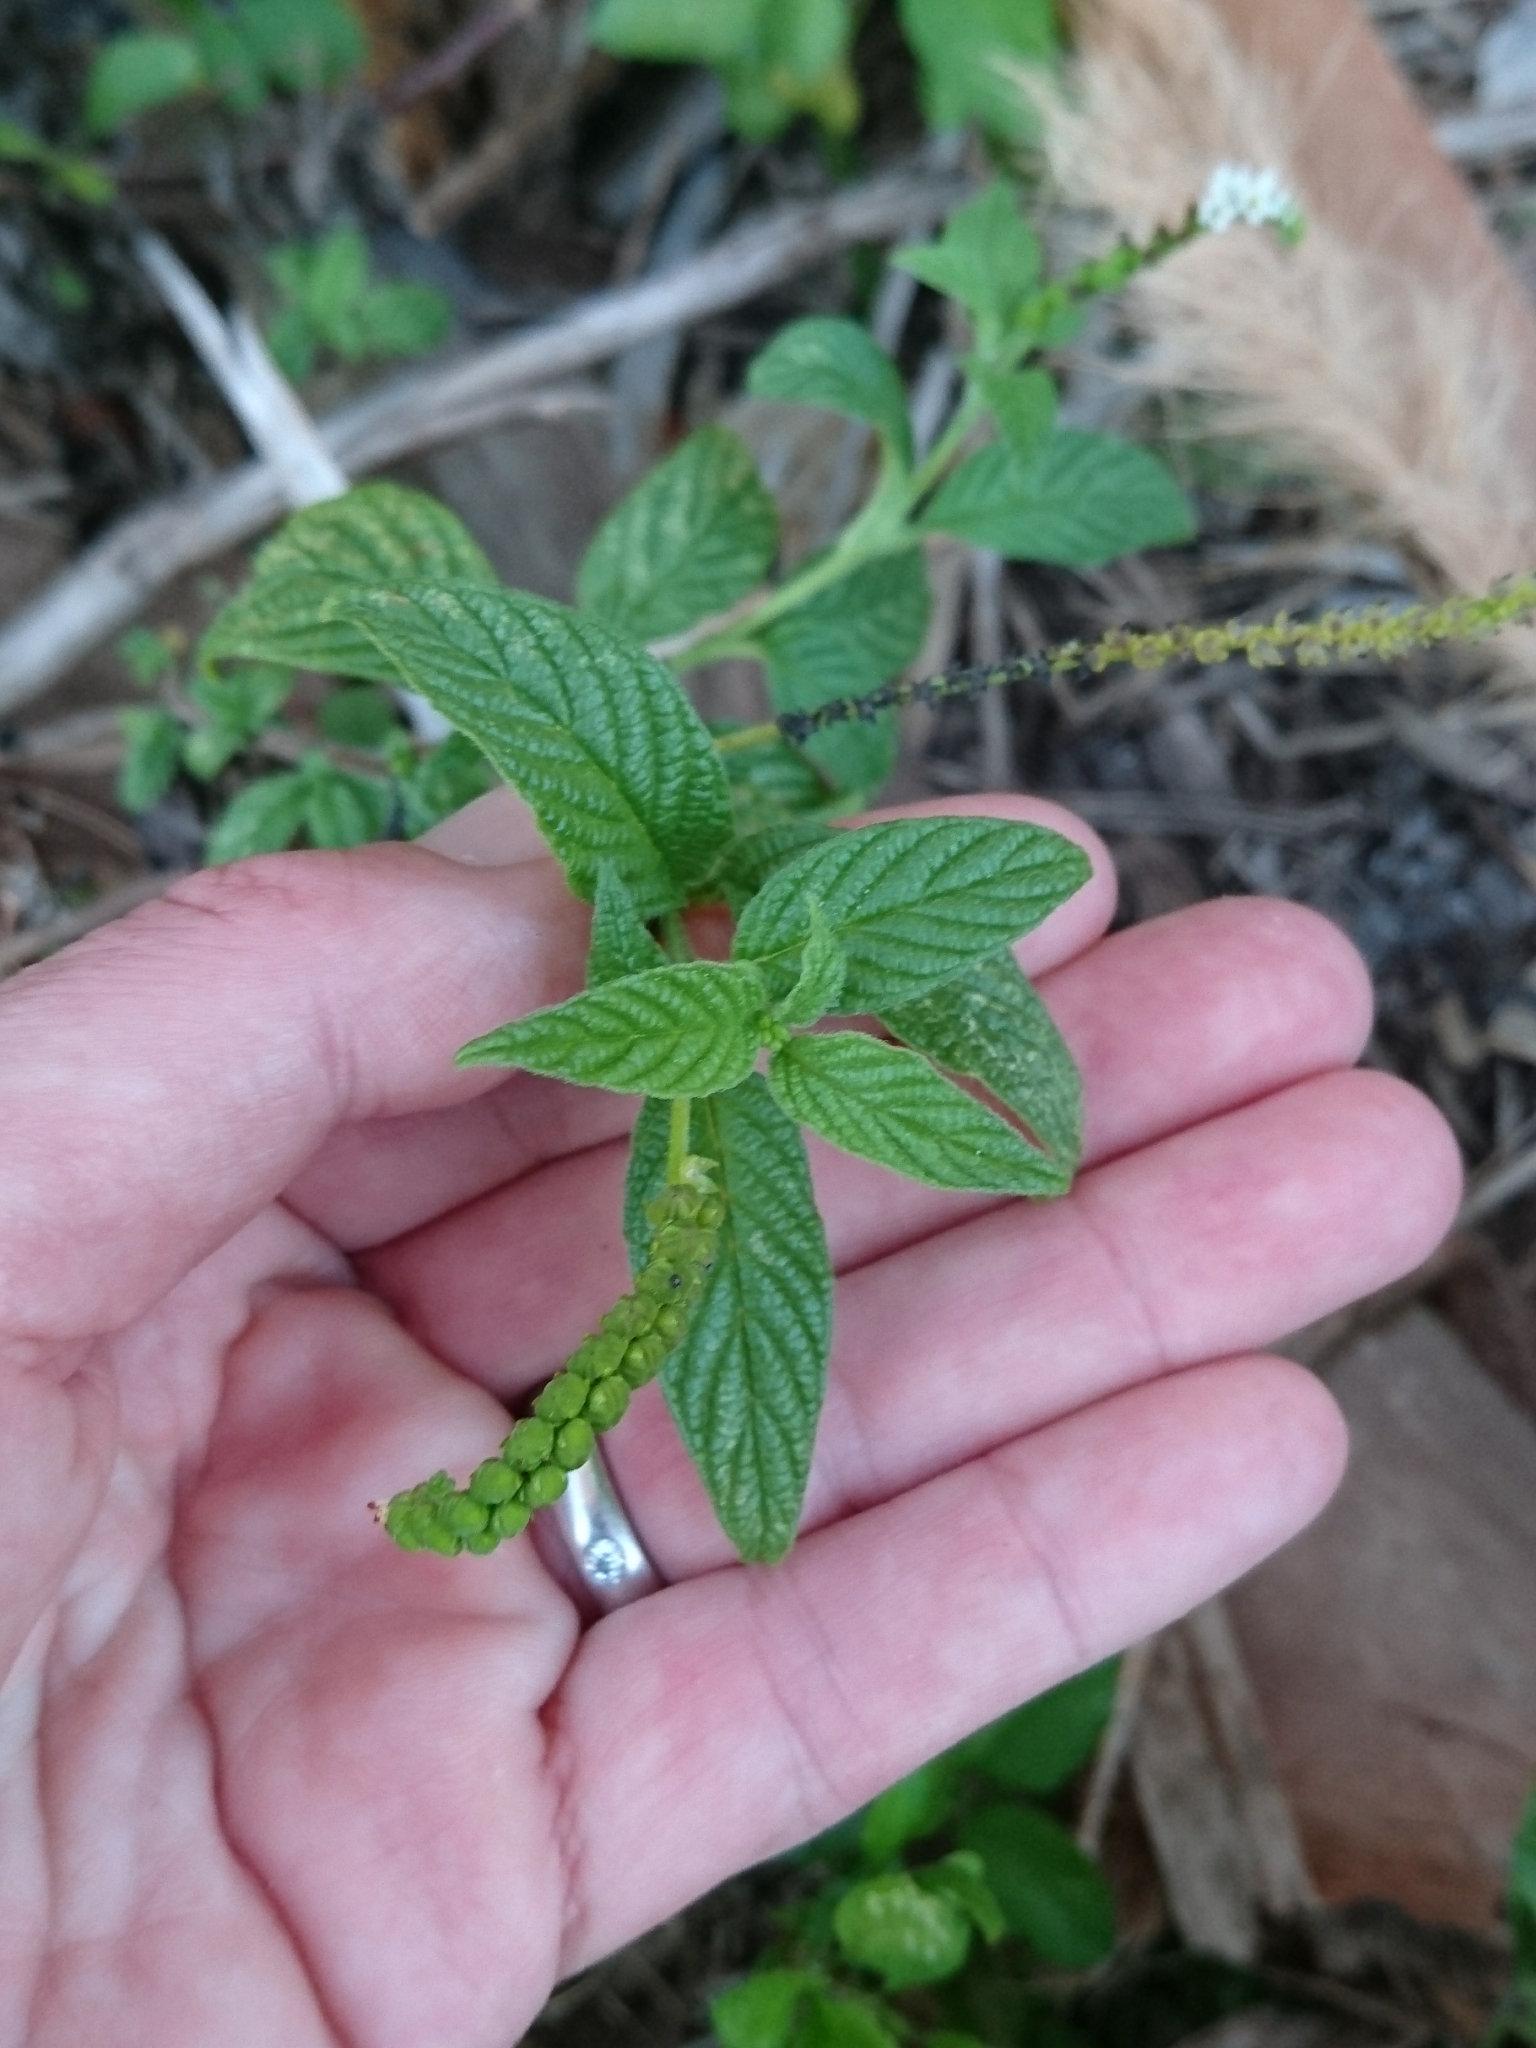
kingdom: Plantae
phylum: Tracheophyta
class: Magnoliopsida
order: Boraginales
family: Heliotropiaceae
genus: Heliotropium
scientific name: Heliotropium angiospermum
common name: Eye bright
